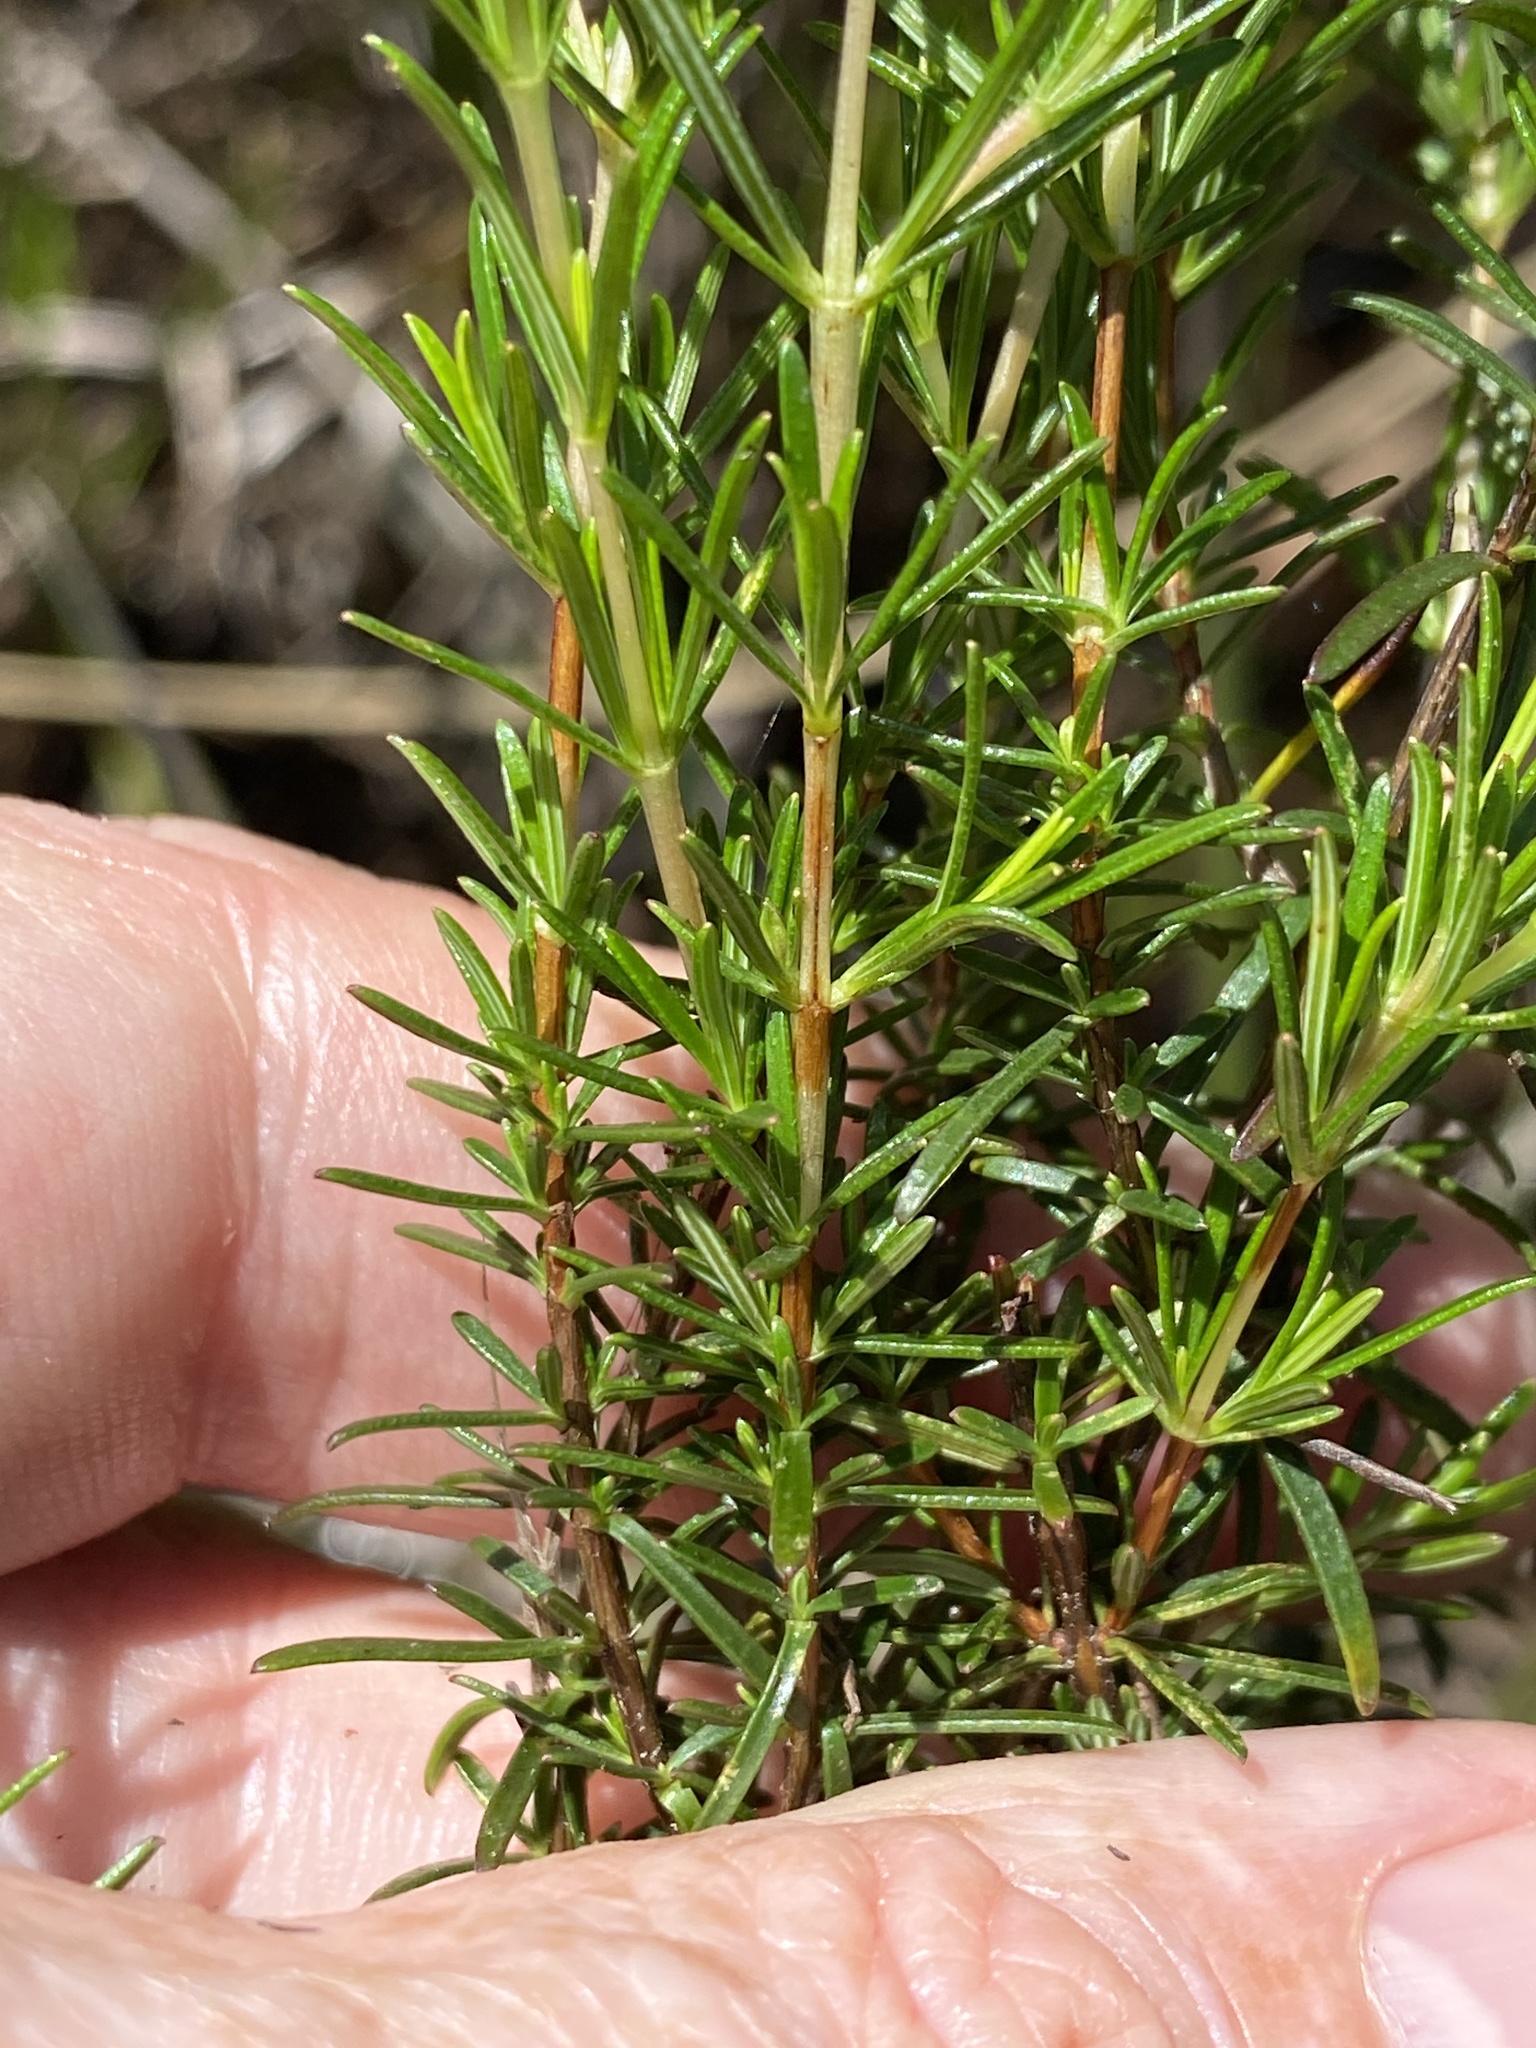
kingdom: Plantae
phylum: Tracheophyta
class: Magnoliopsida
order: Malpighiales
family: Hypericaceae
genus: Hypericum
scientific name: Hypericum brachyphyllum
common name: Coastal plain st. john's-wort
